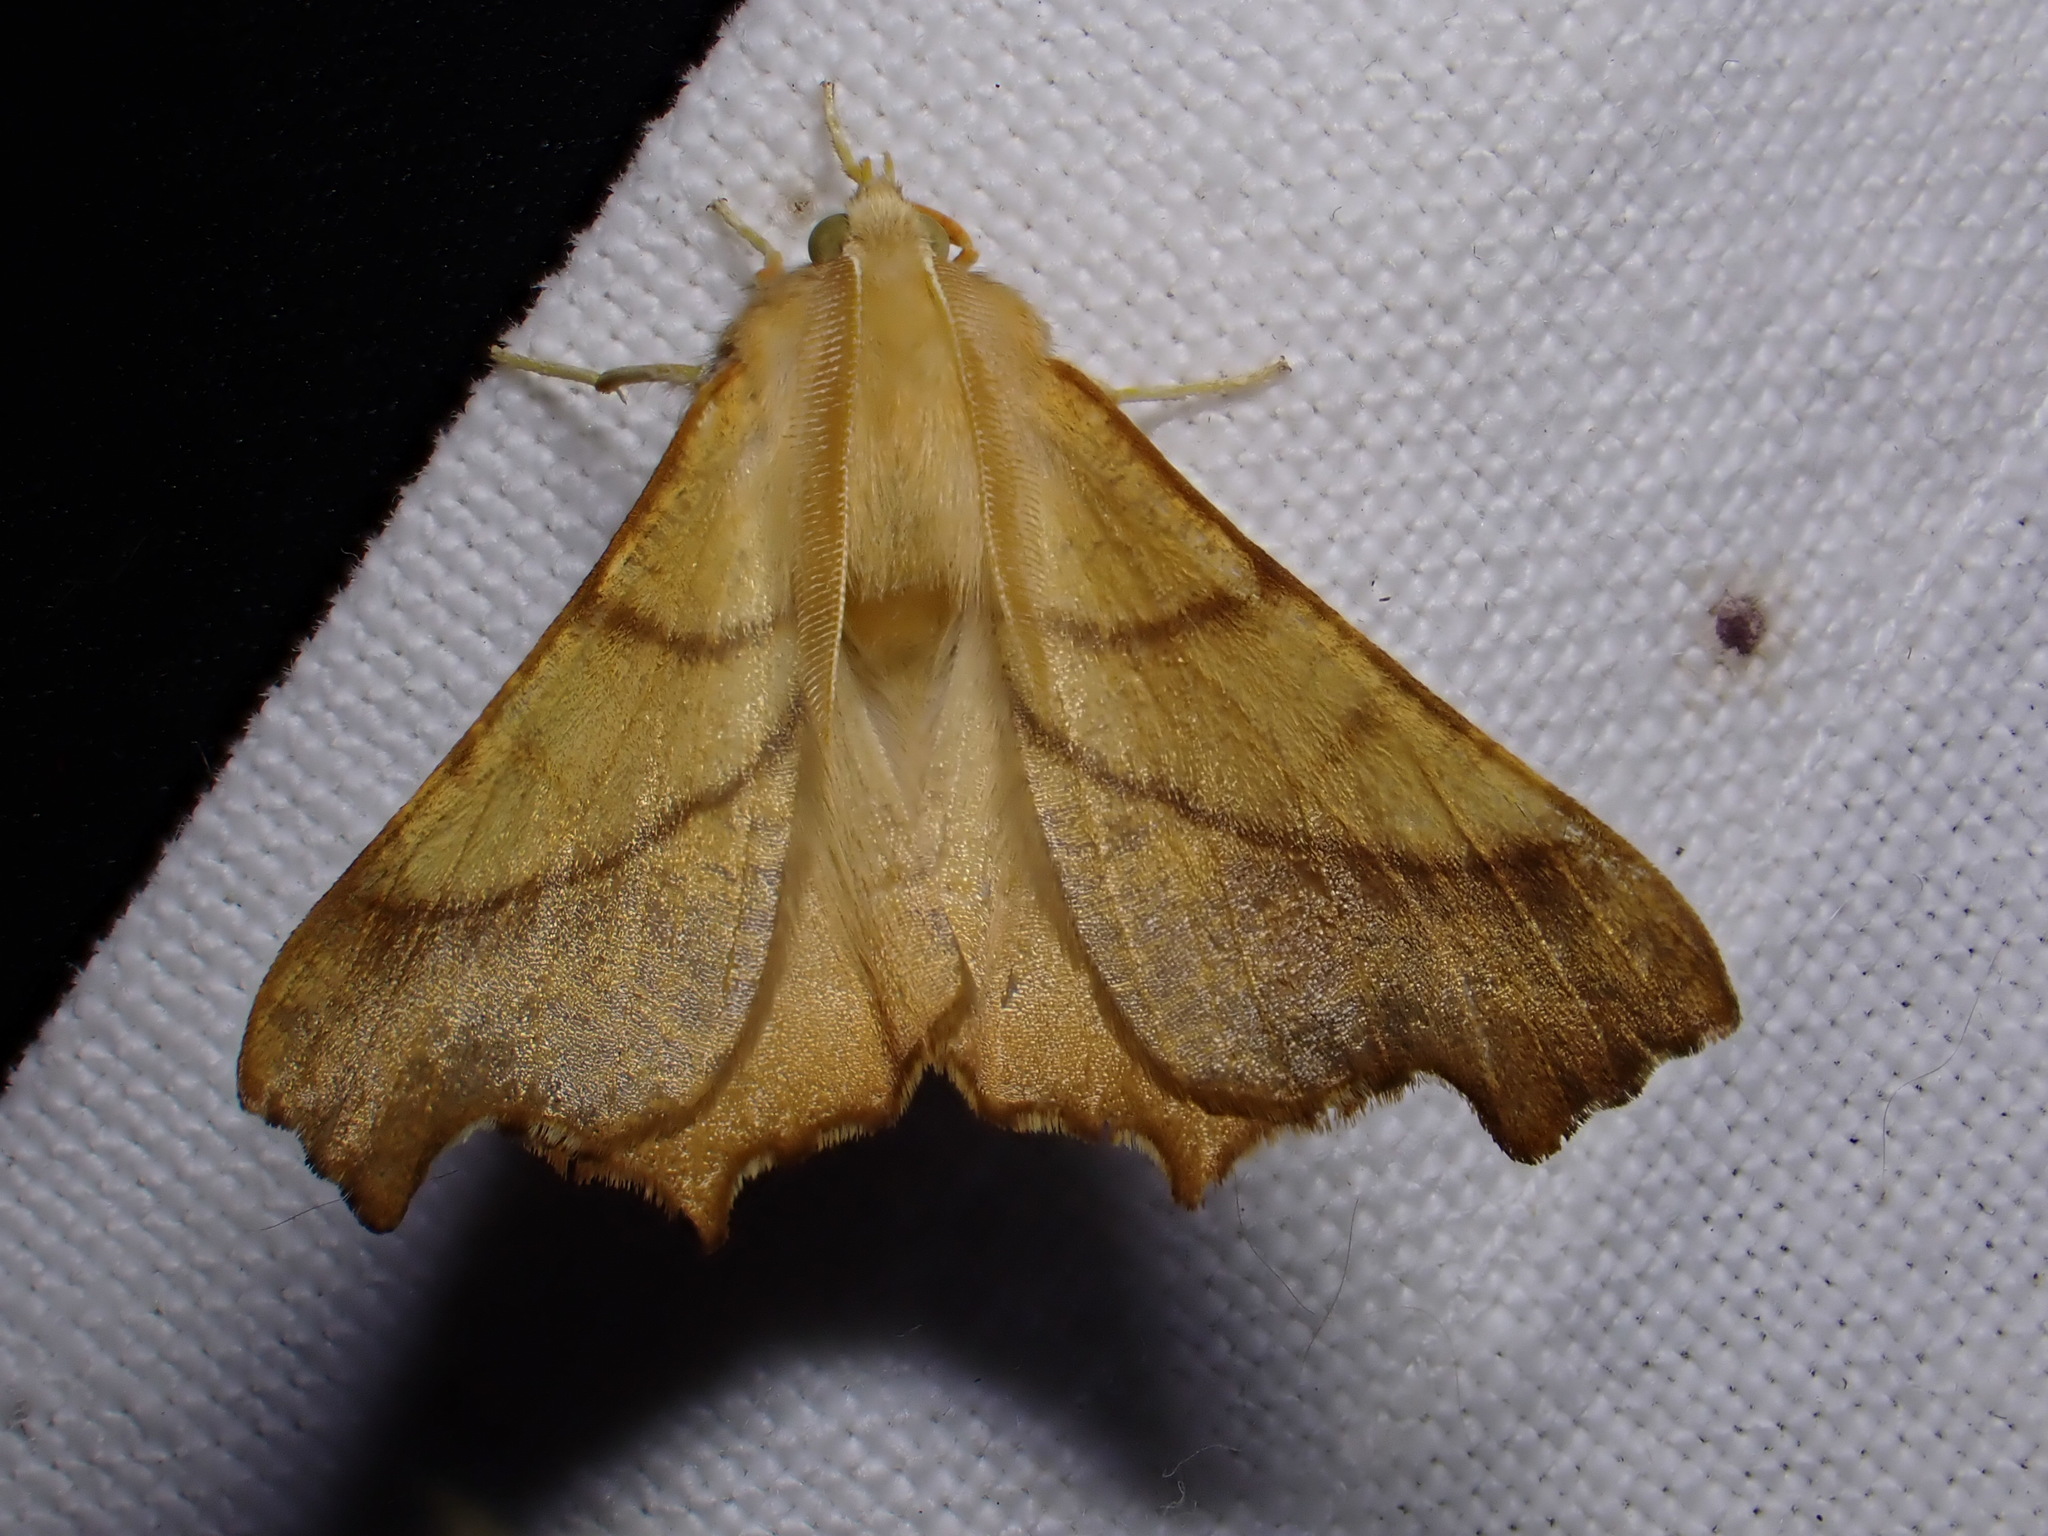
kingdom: Animalia
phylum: Arthropoda
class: Insecta
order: Lepidoptera
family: Geometridae
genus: Ennomos
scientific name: Ennomos fuscantaria
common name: Dusky thorn
